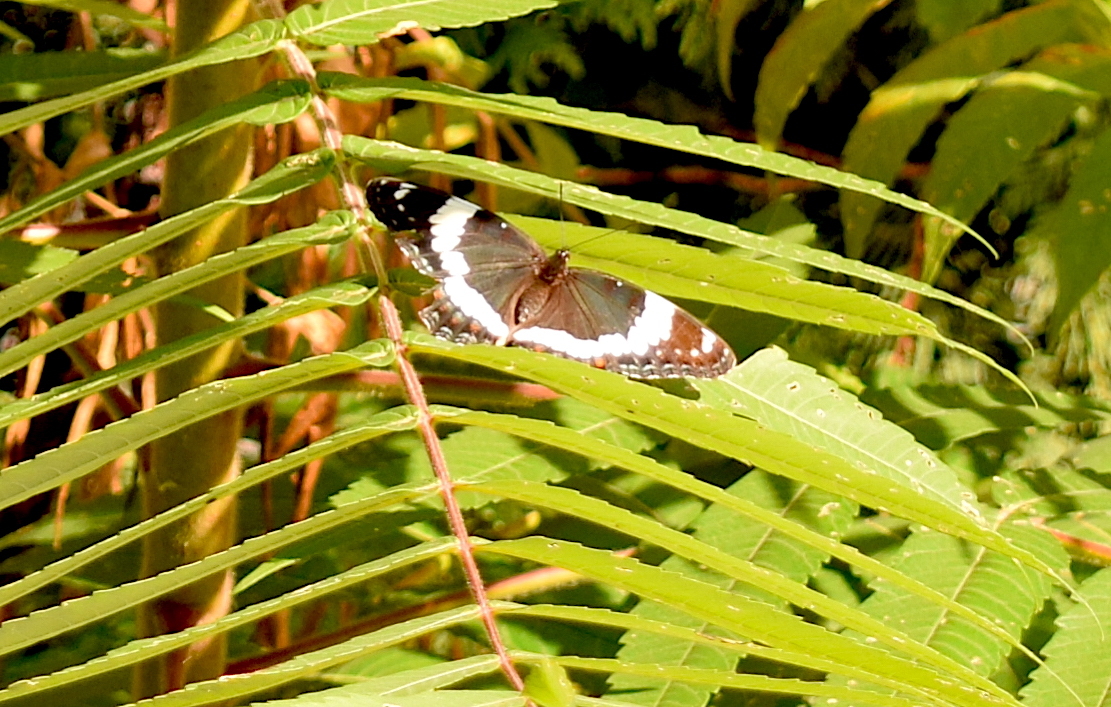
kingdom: Animalia
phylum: Arthropoda
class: Insecta
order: Lepidoptera
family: Nymphalidae
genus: Limenitis
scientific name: Limenitis arthemis
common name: Red-spotted admiral
